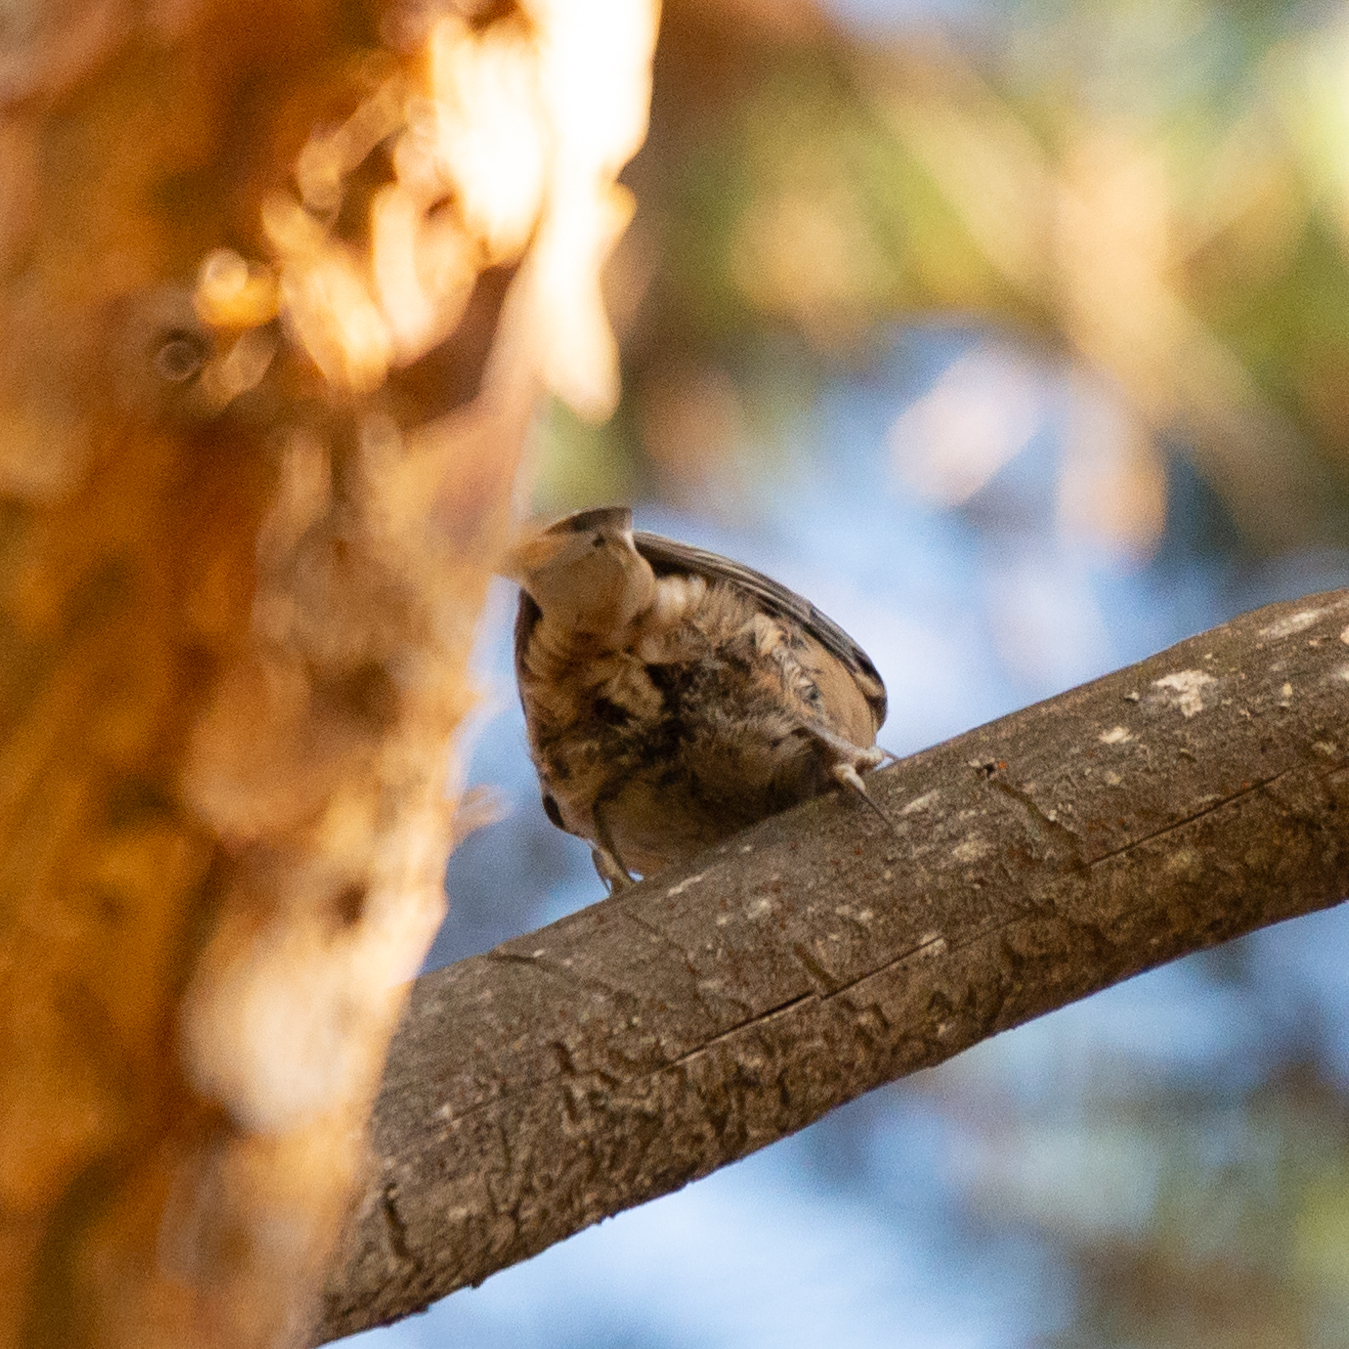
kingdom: Animalia
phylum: Chordata
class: Aves
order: Passeriformes
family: Sittidae
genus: Sitta
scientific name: Sitta europaea
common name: Eurasian nuthatch
